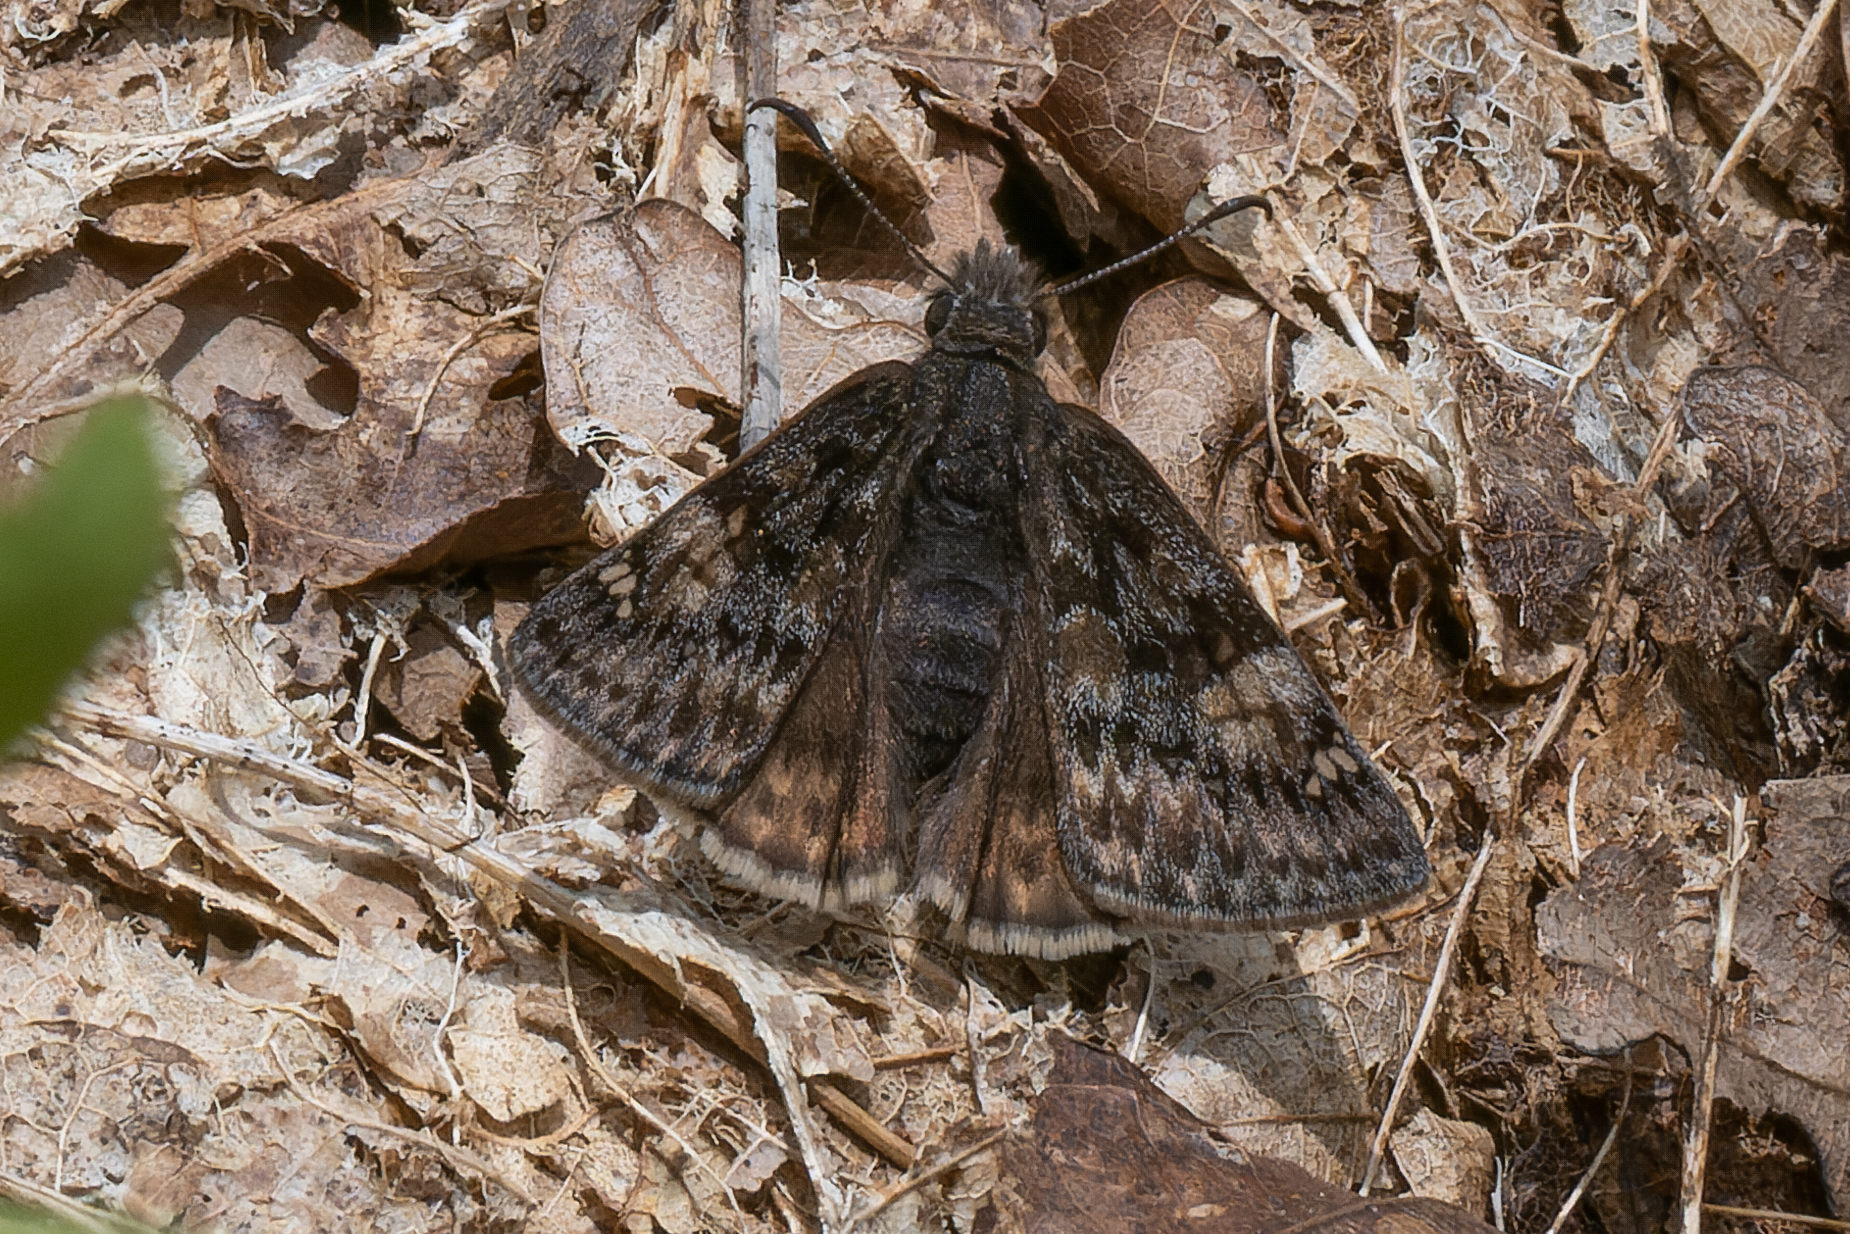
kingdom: Animalia
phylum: Arthropoda
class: Insecta
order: Lepidoptera
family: Hesperiidae
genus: Erynnis
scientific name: Erynnis juvenalis
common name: Juvenal's duskywing
